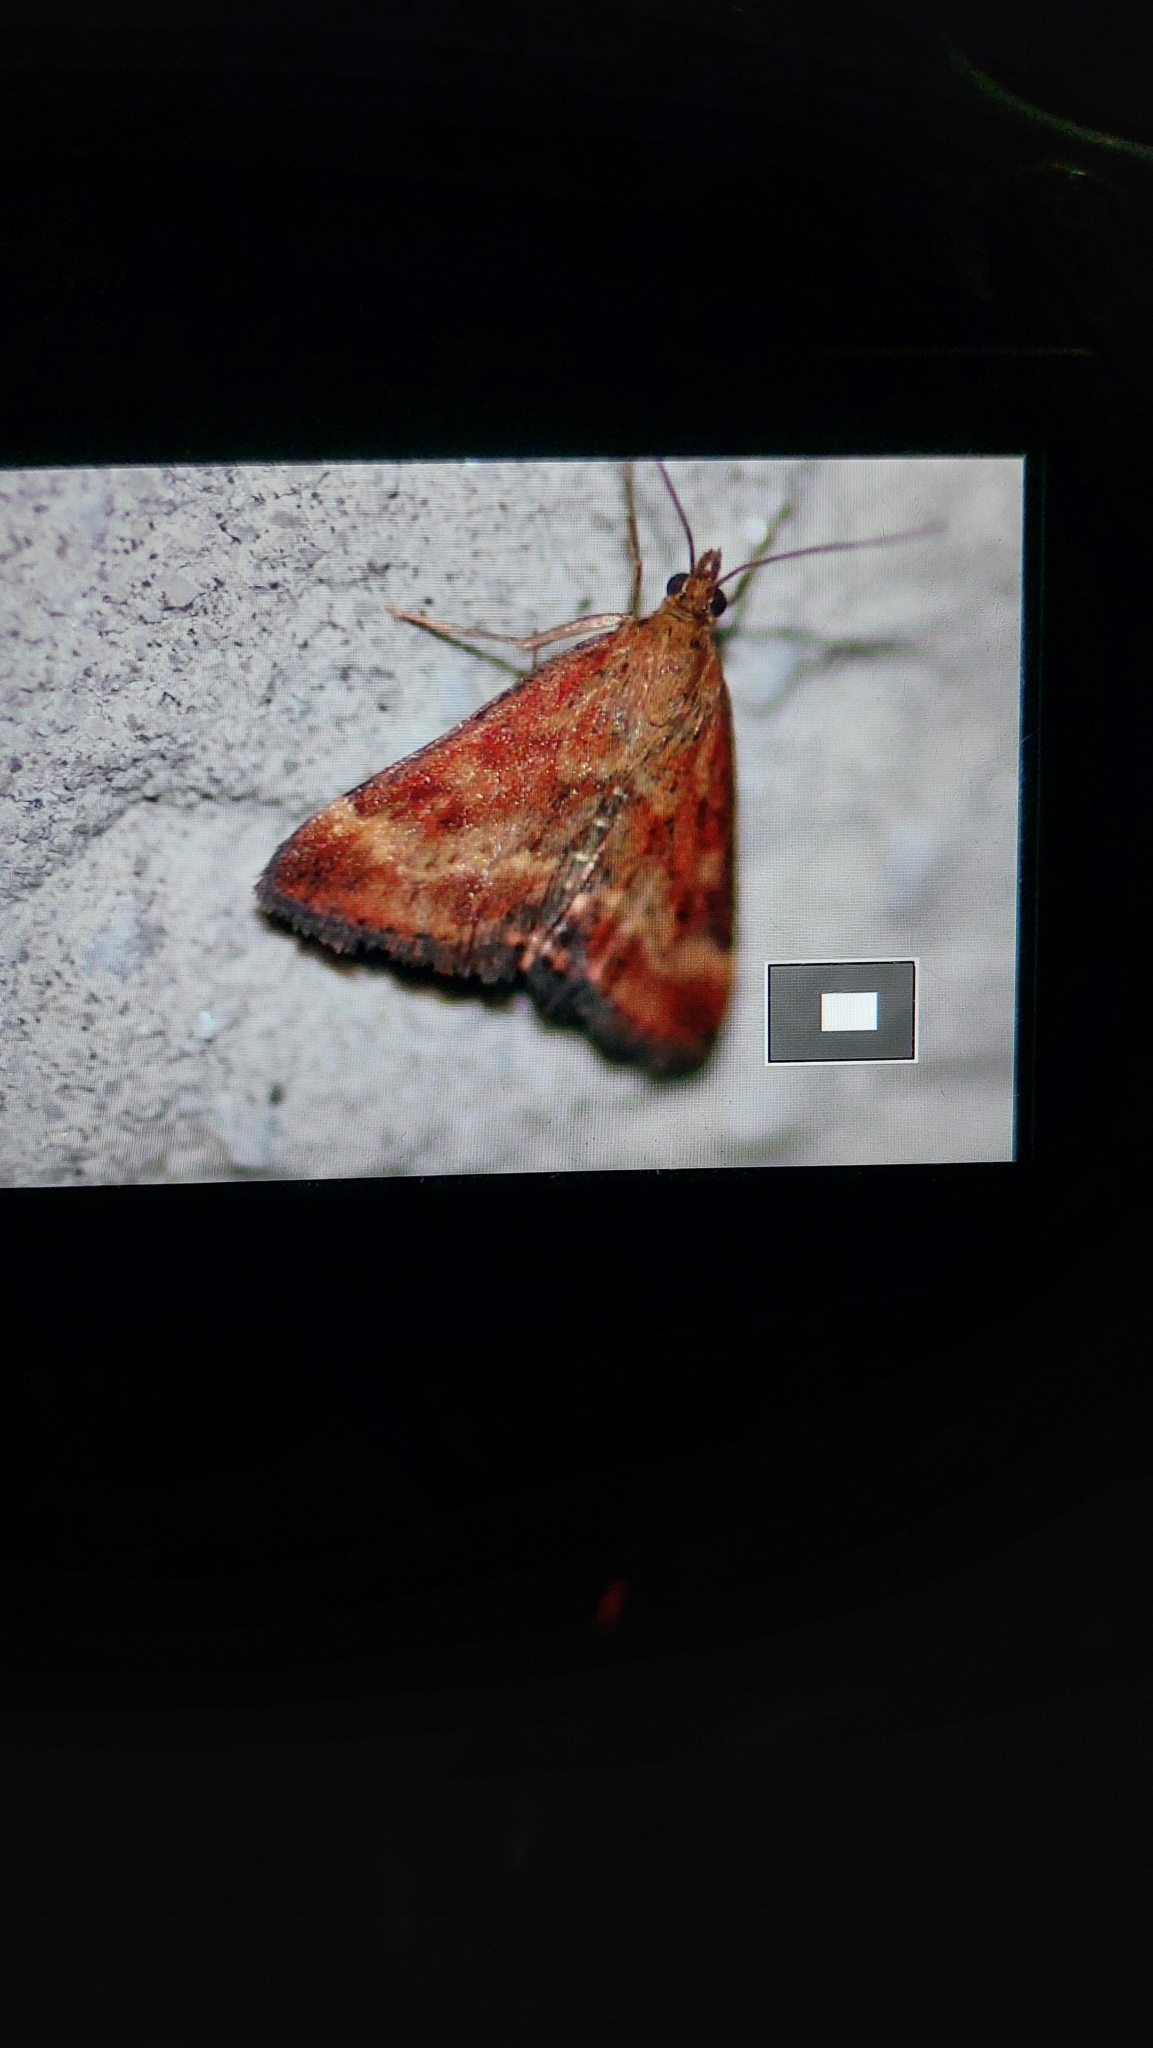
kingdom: Animalia
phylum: Arthropoda
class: Insecta
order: Lepidoptera
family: Crambidae
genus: Pyrausta
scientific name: Pyrausta despicata
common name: Straw-barred pearl
